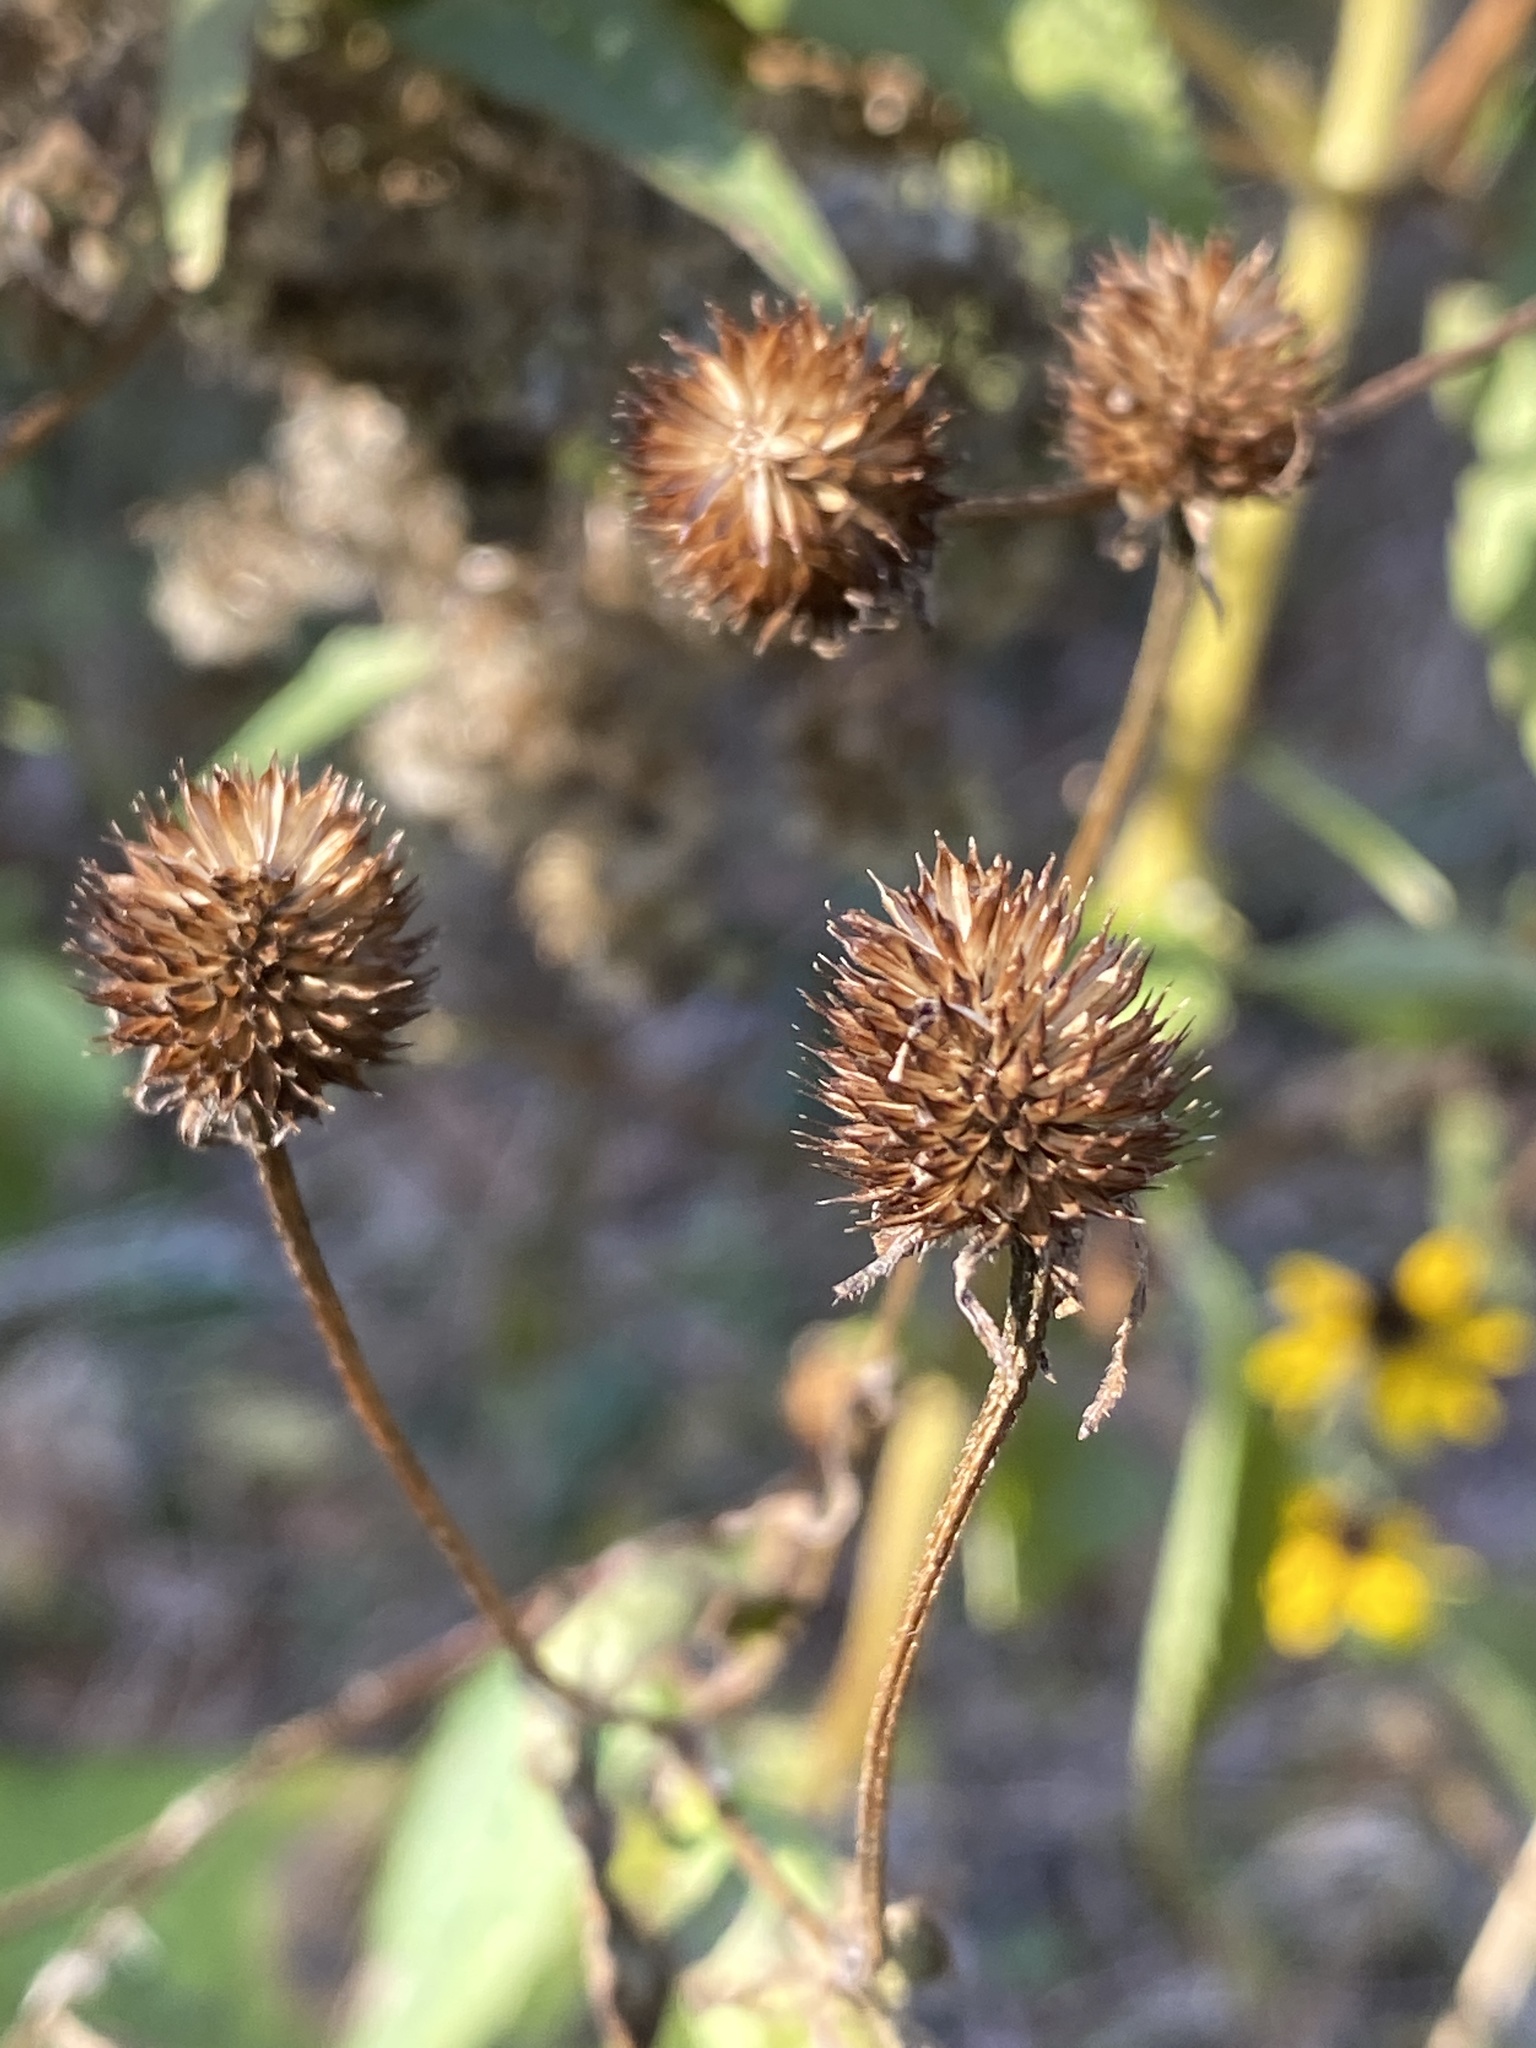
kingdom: Plantae
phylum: Tracheophyta
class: Magnoliopsida
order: Asterales
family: Asteraceae
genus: Rudbeckia
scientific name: Rudbeckia triloba
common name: Thin-leaved coneflower
